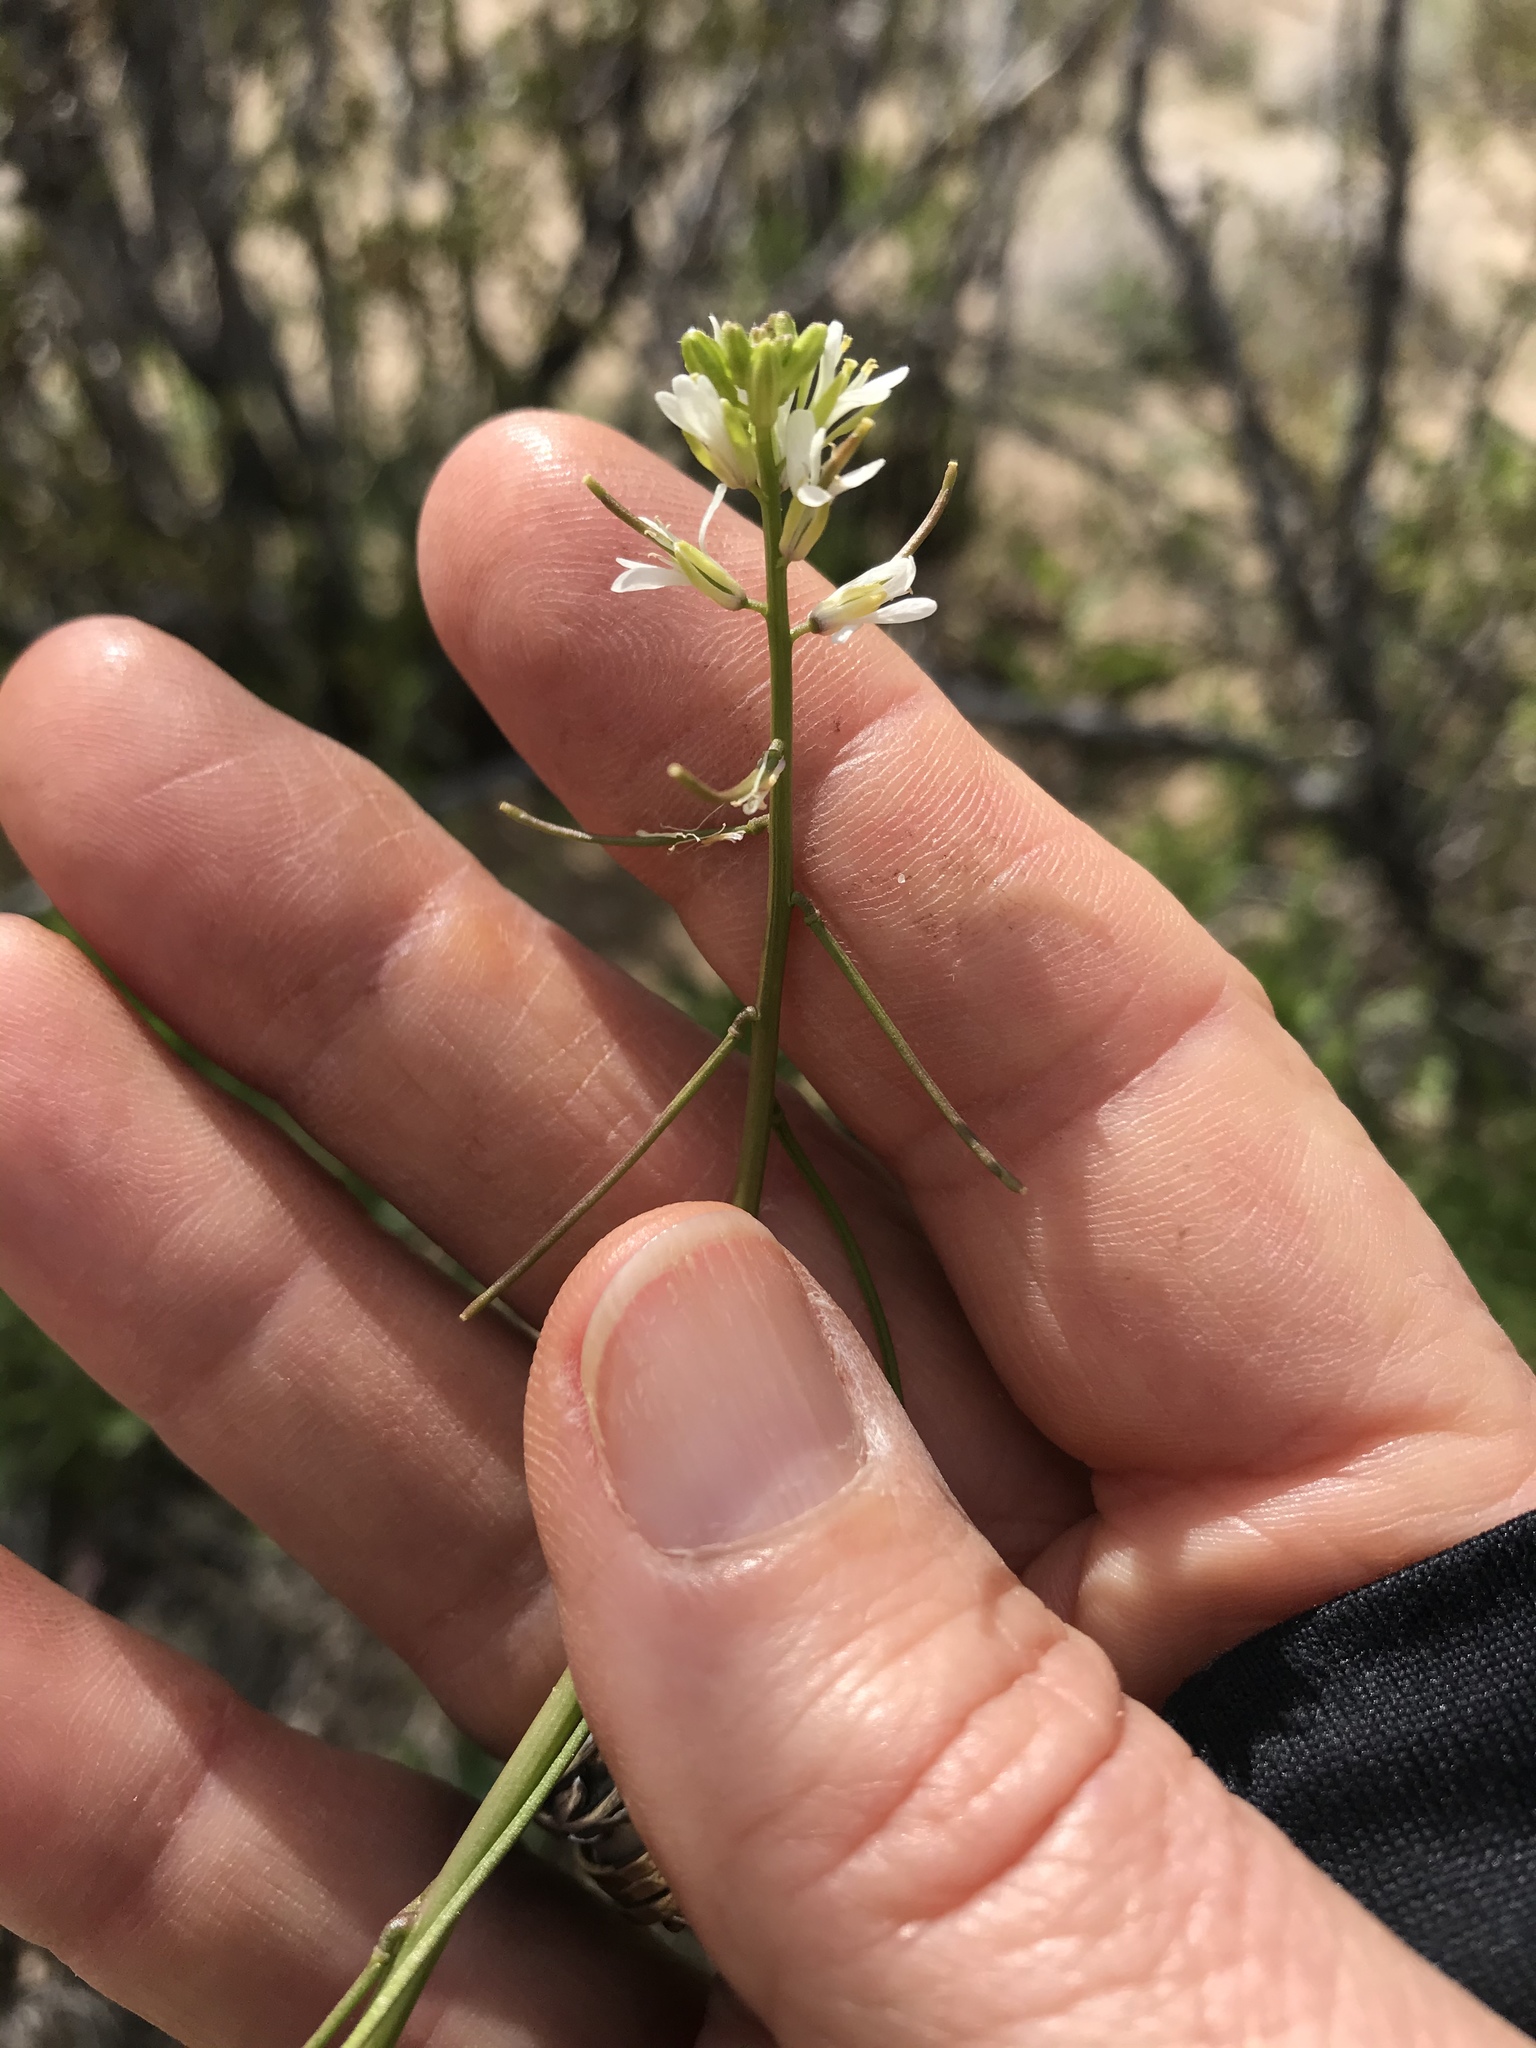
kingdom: Plantae
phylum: Tracheophyta
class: Magnoliopsida
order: Brassicales
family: Brassicaceae
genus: Streptanthus
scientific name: Streptanthus lasiophyllus
